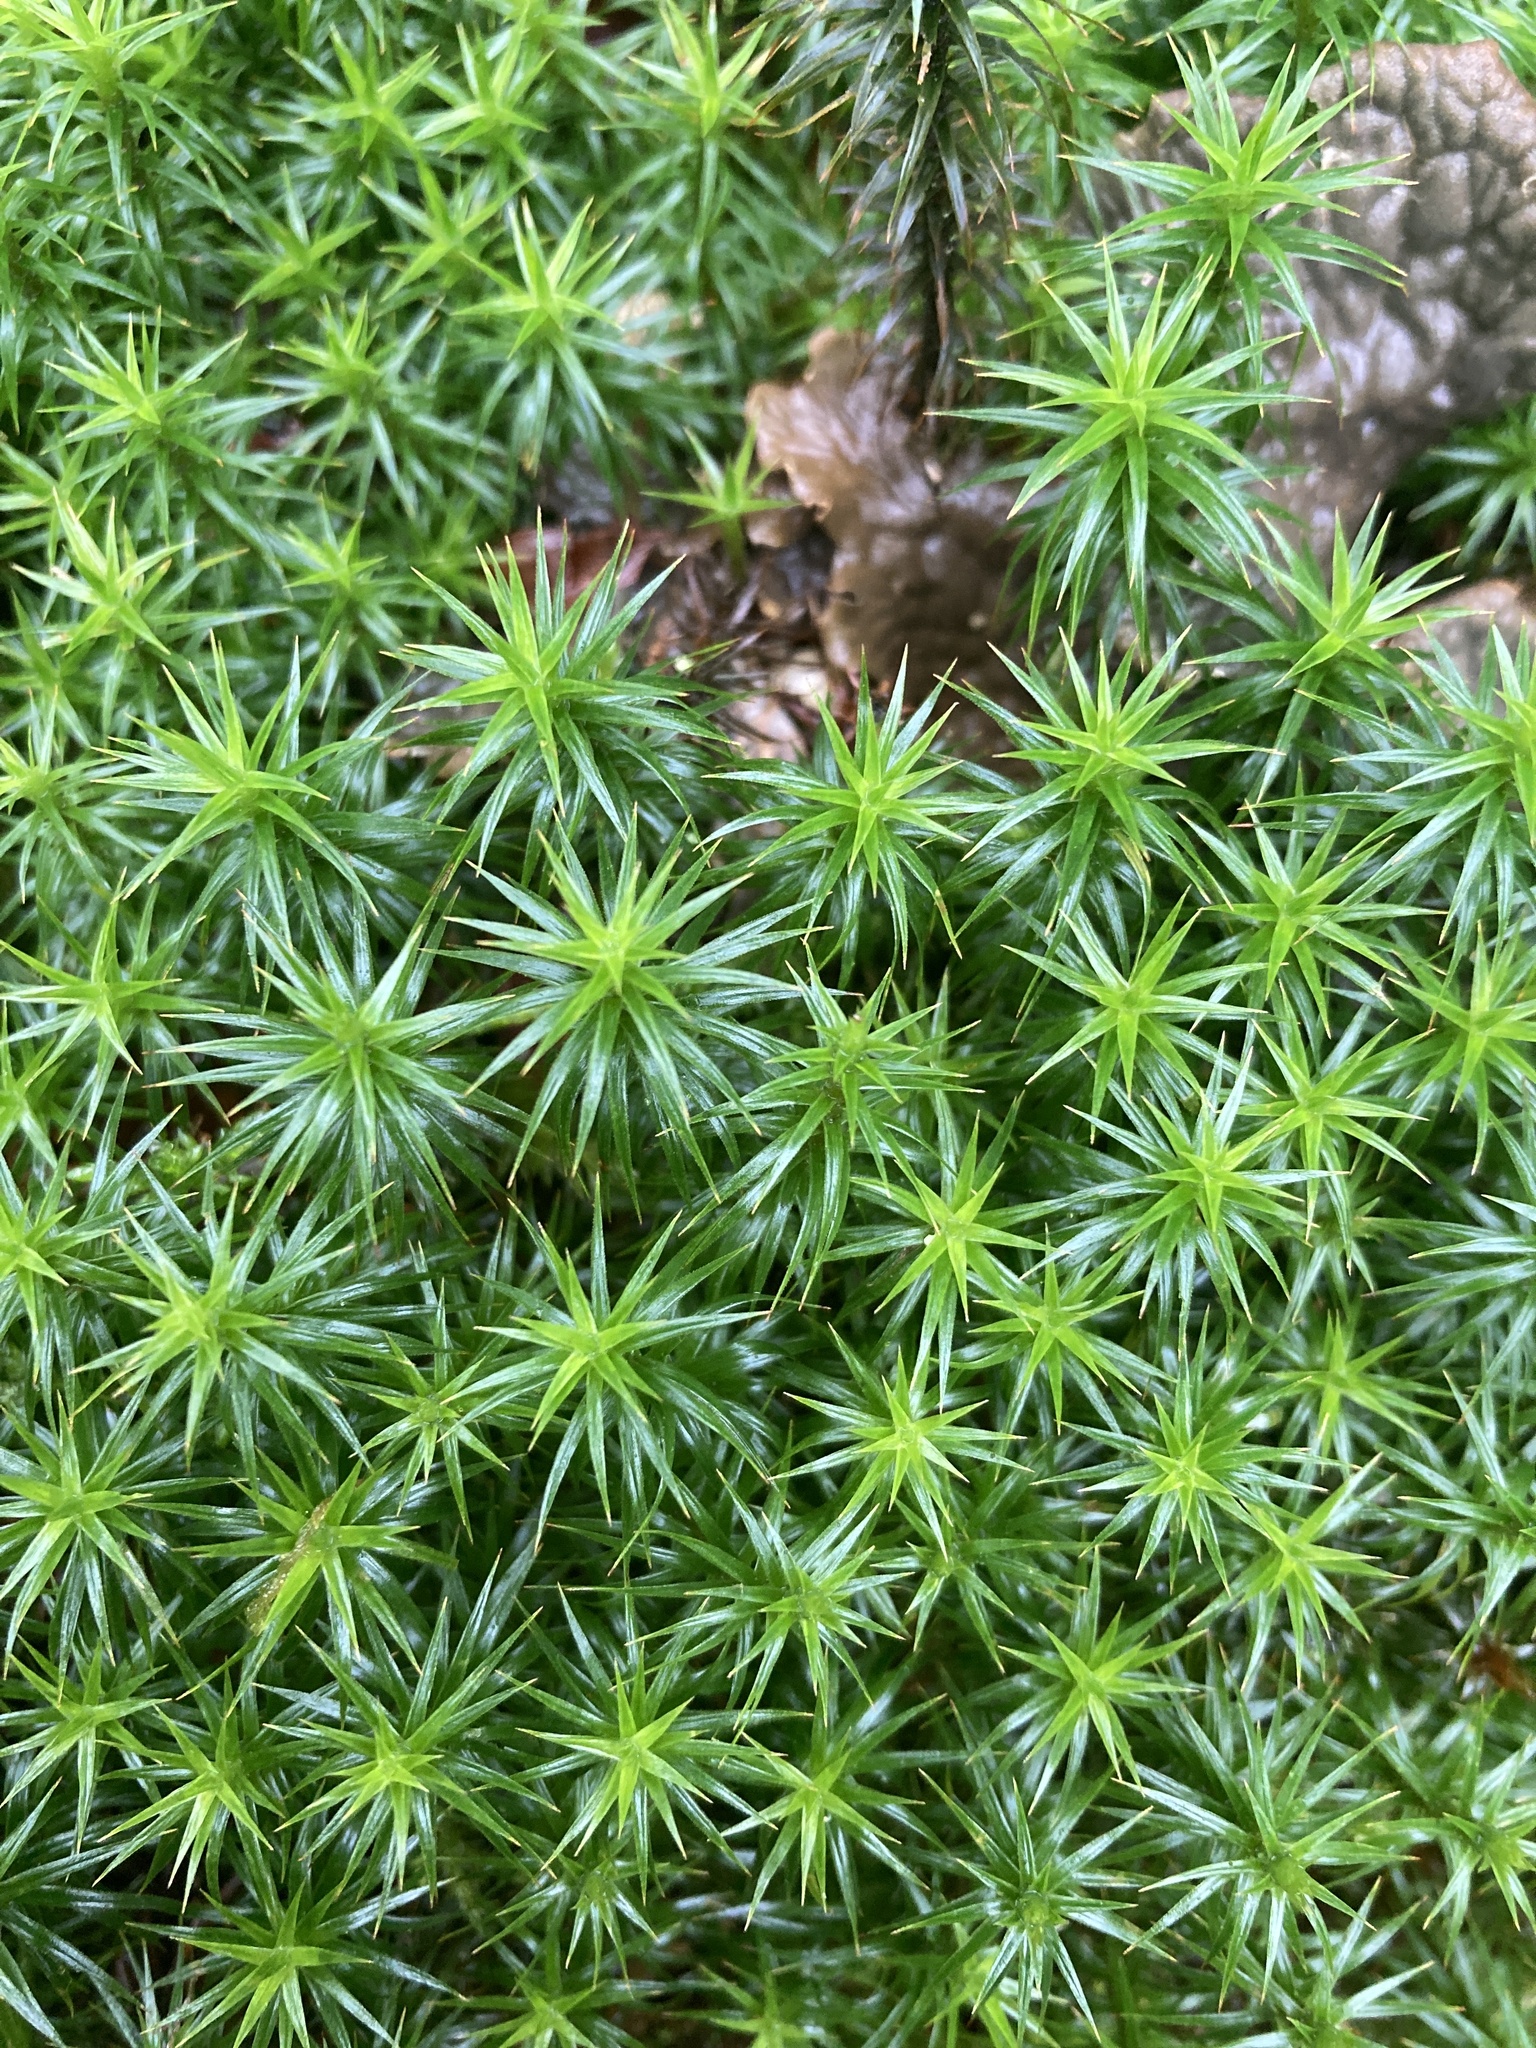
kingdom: Plantae
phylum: Bryophyta
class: Polytrichopsida
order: Polytrichales
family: Polytrichaceae
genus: Polytrichum
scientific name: Polytrichum formosum
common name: Bank haircap moss
